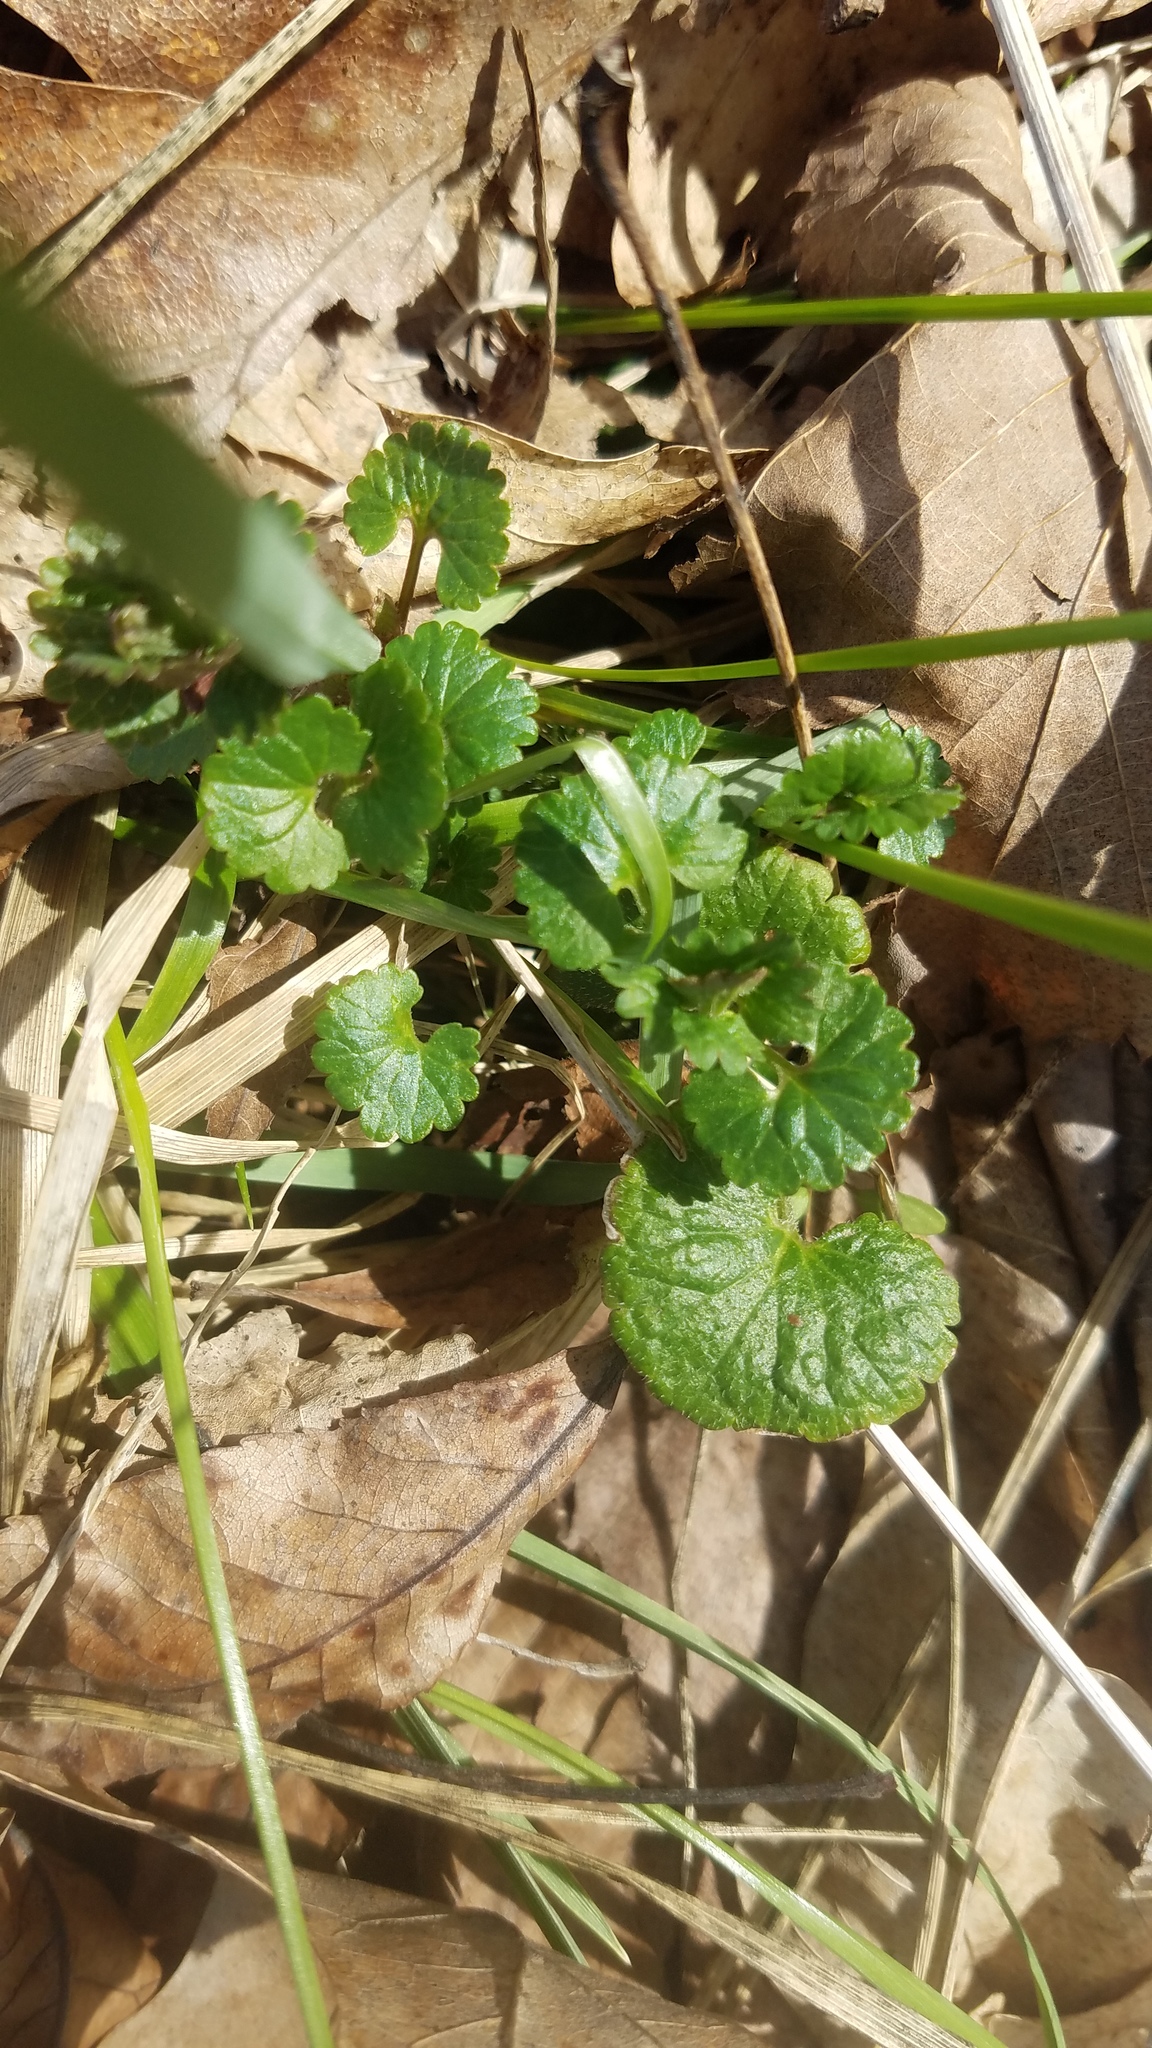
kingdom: Plantae
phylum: Tracheophyta
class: Magnoliopsida
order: Lamiales
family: Lamiaceae
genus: Glechoma
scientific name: Glechoma hederacea
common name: Ground ivy
